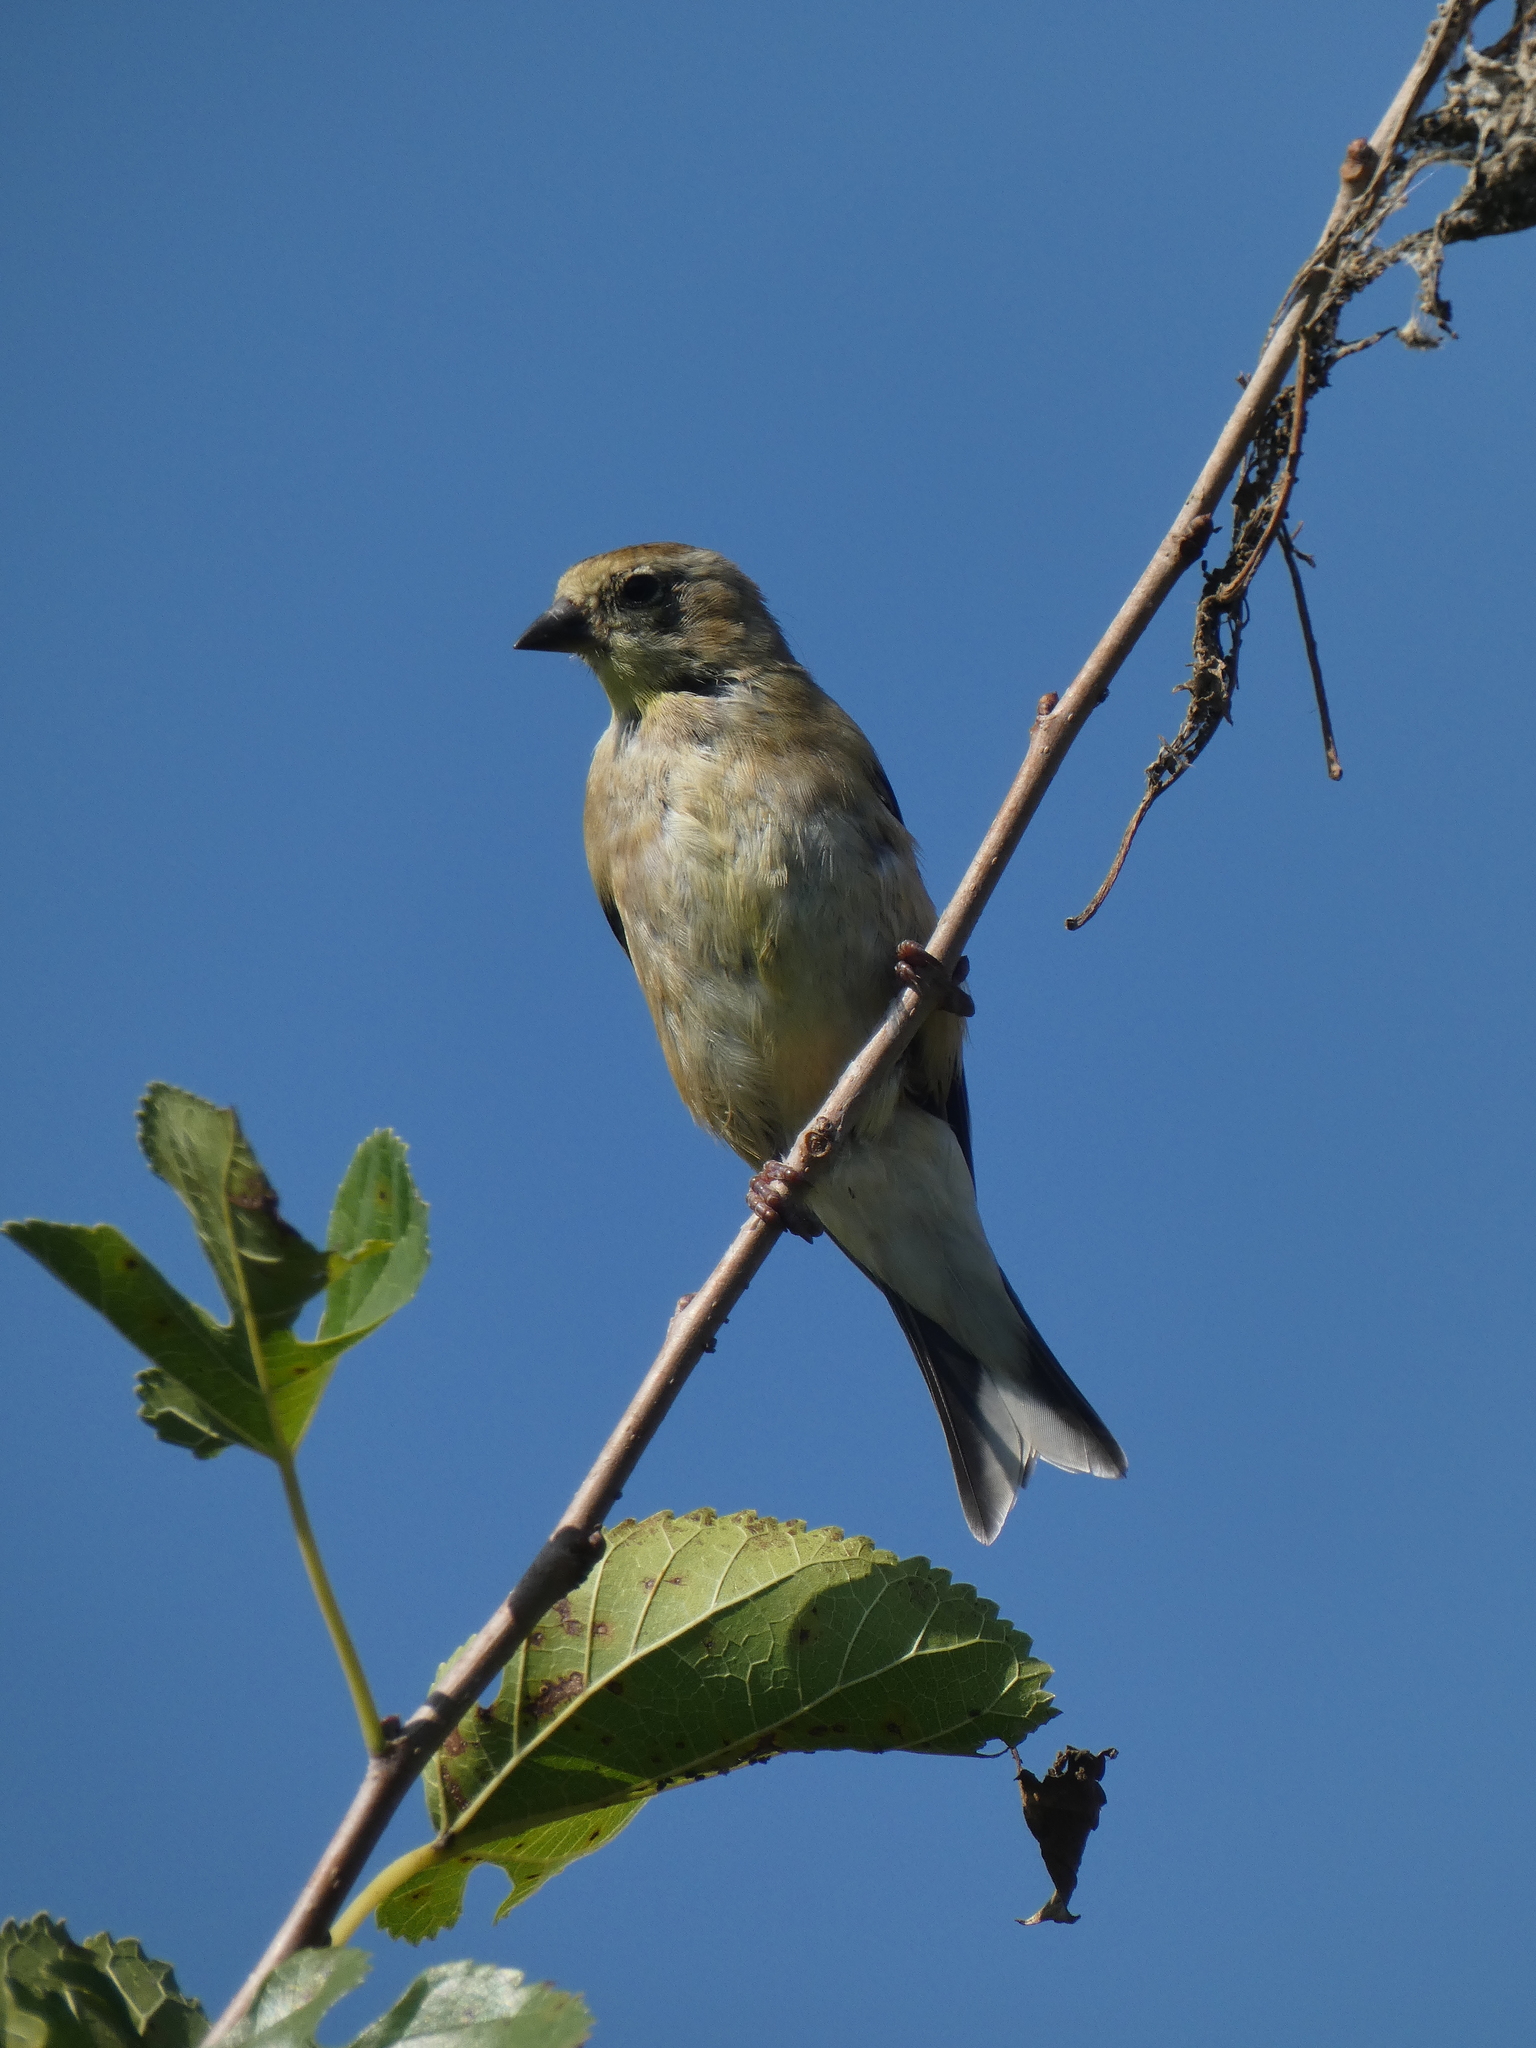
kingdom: Animalia
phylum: Chordata
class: Aves
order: Passeriformes
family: Fringillidae
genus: Spinus
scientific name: Spinus tristis
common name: American goldfinch
